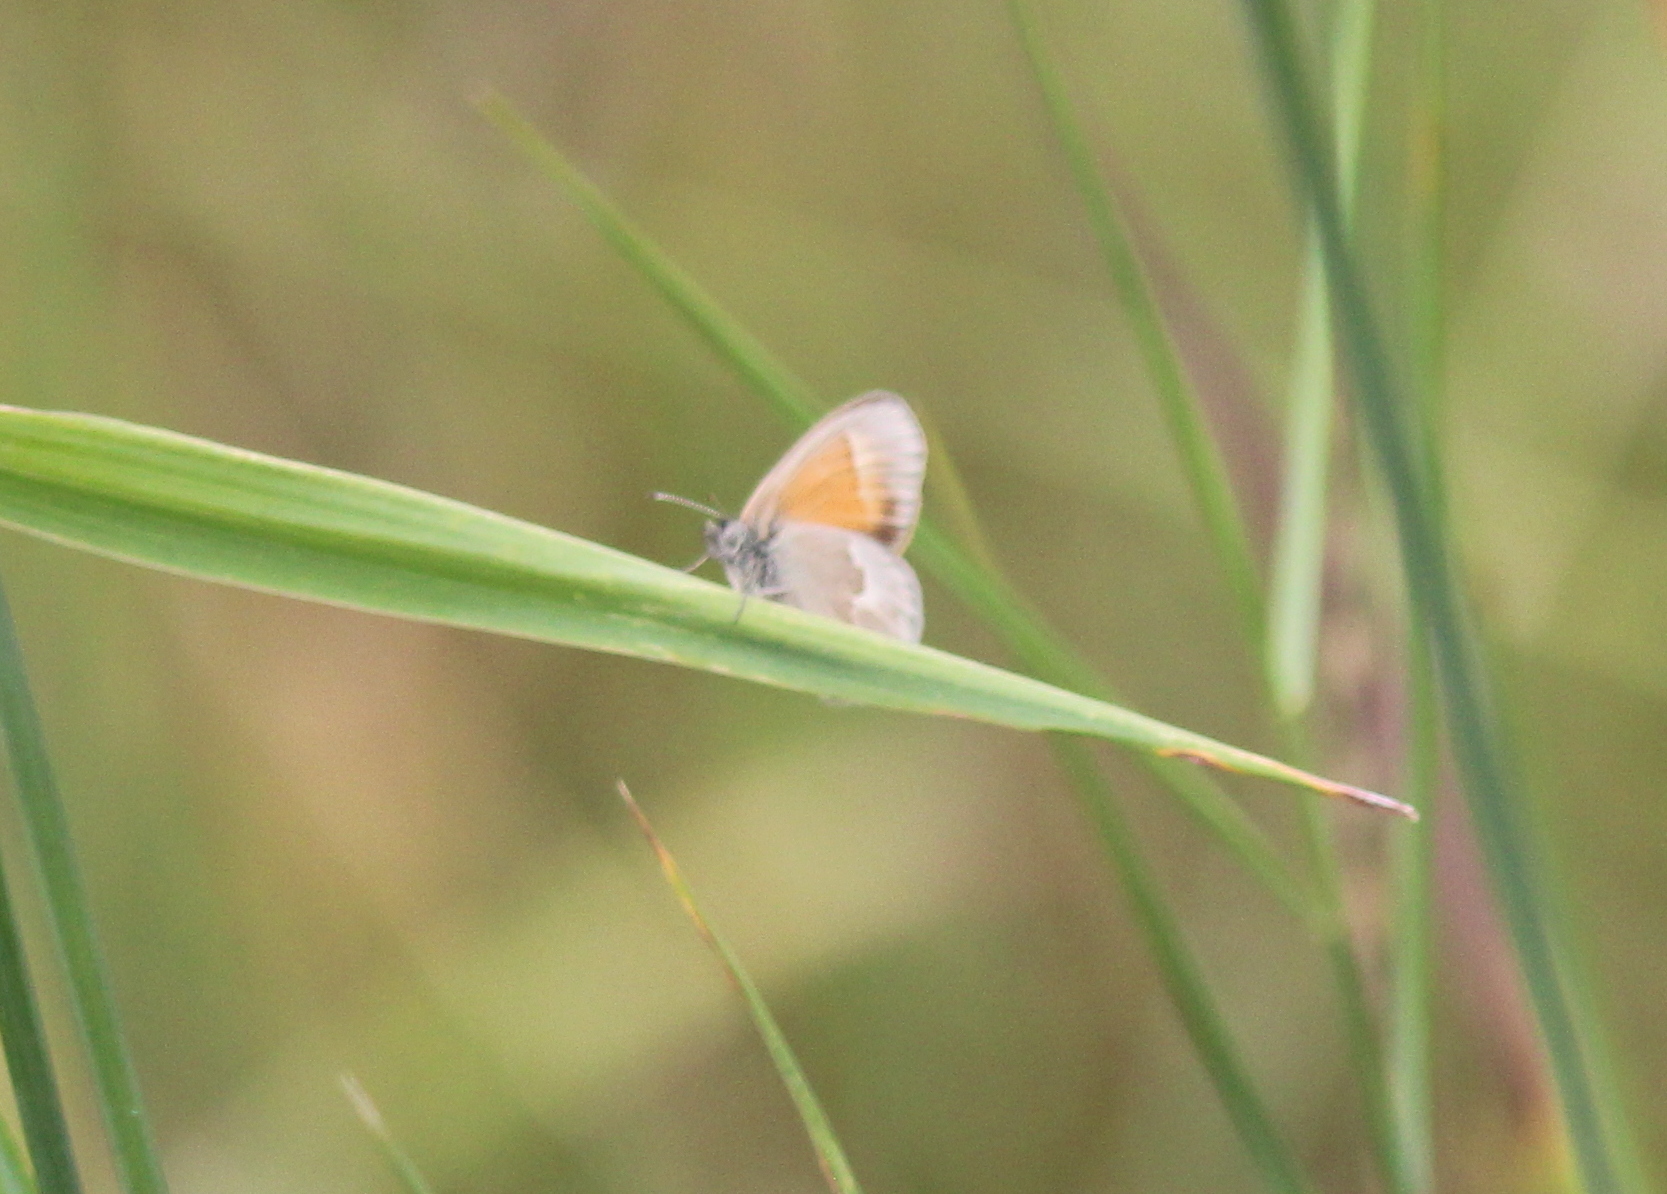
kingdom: Animalia
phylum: Arthropoda
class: Insecta
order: Lepidoptera
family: Nymphalidae
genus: Coenonympha
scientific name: Coenonympha california
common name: Common ringlet
